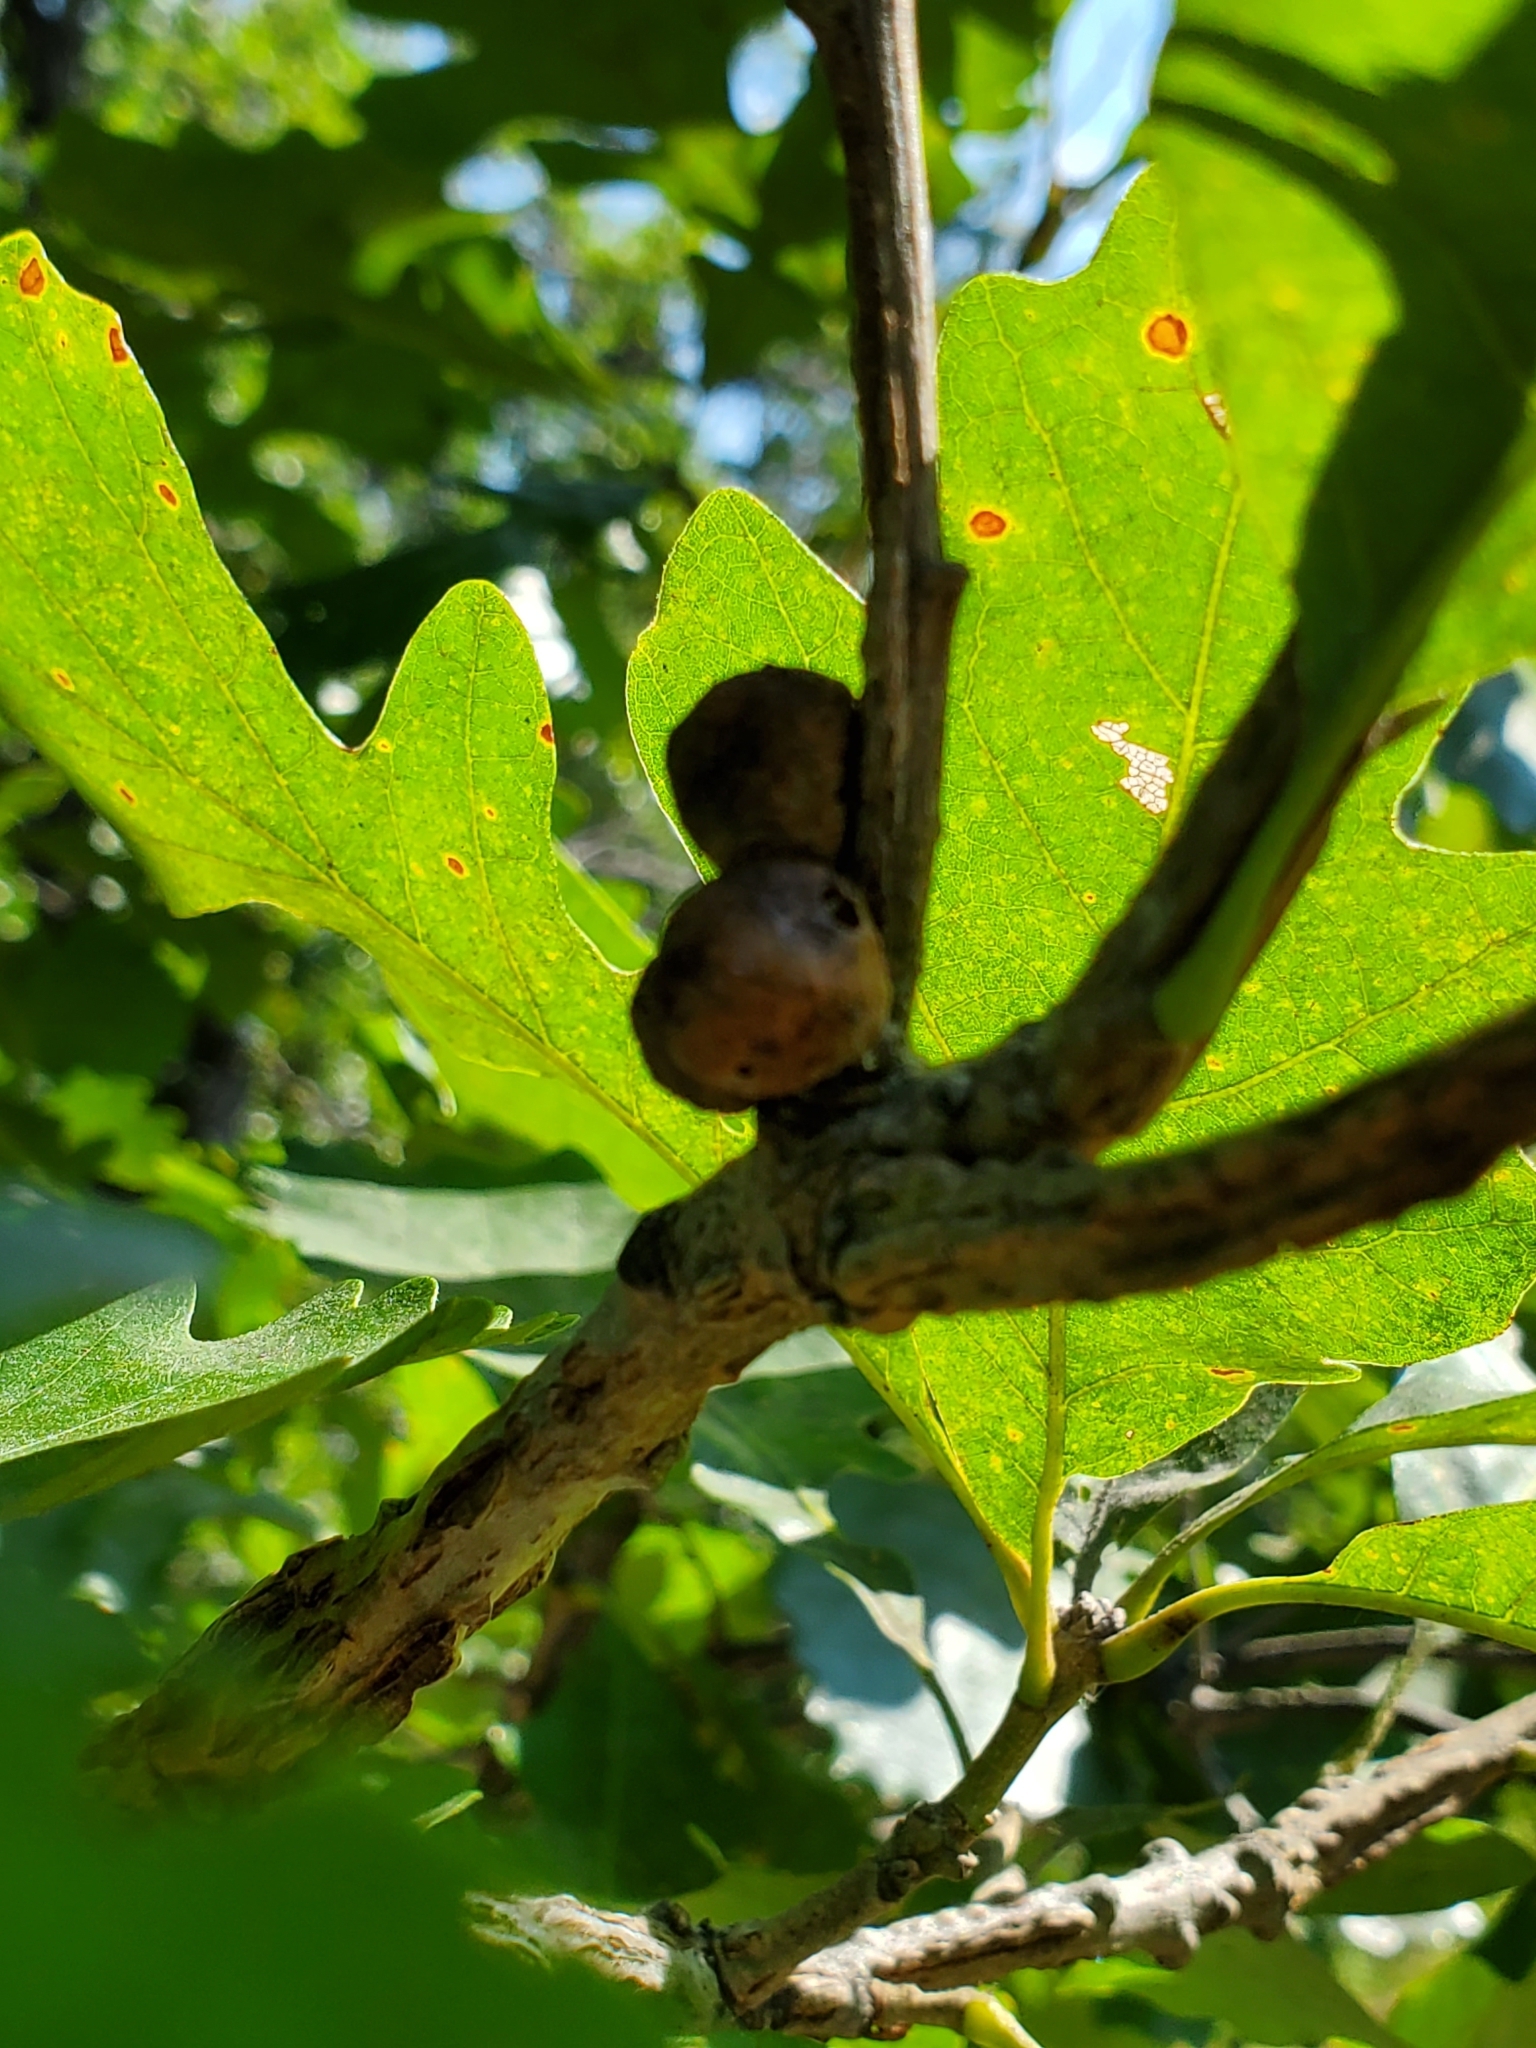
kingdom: Animalia
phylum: Arthropoda
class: Insecta
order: Hymenoptera
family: Cynipidae
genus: Disholcaspis
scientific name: Disholcaspis
